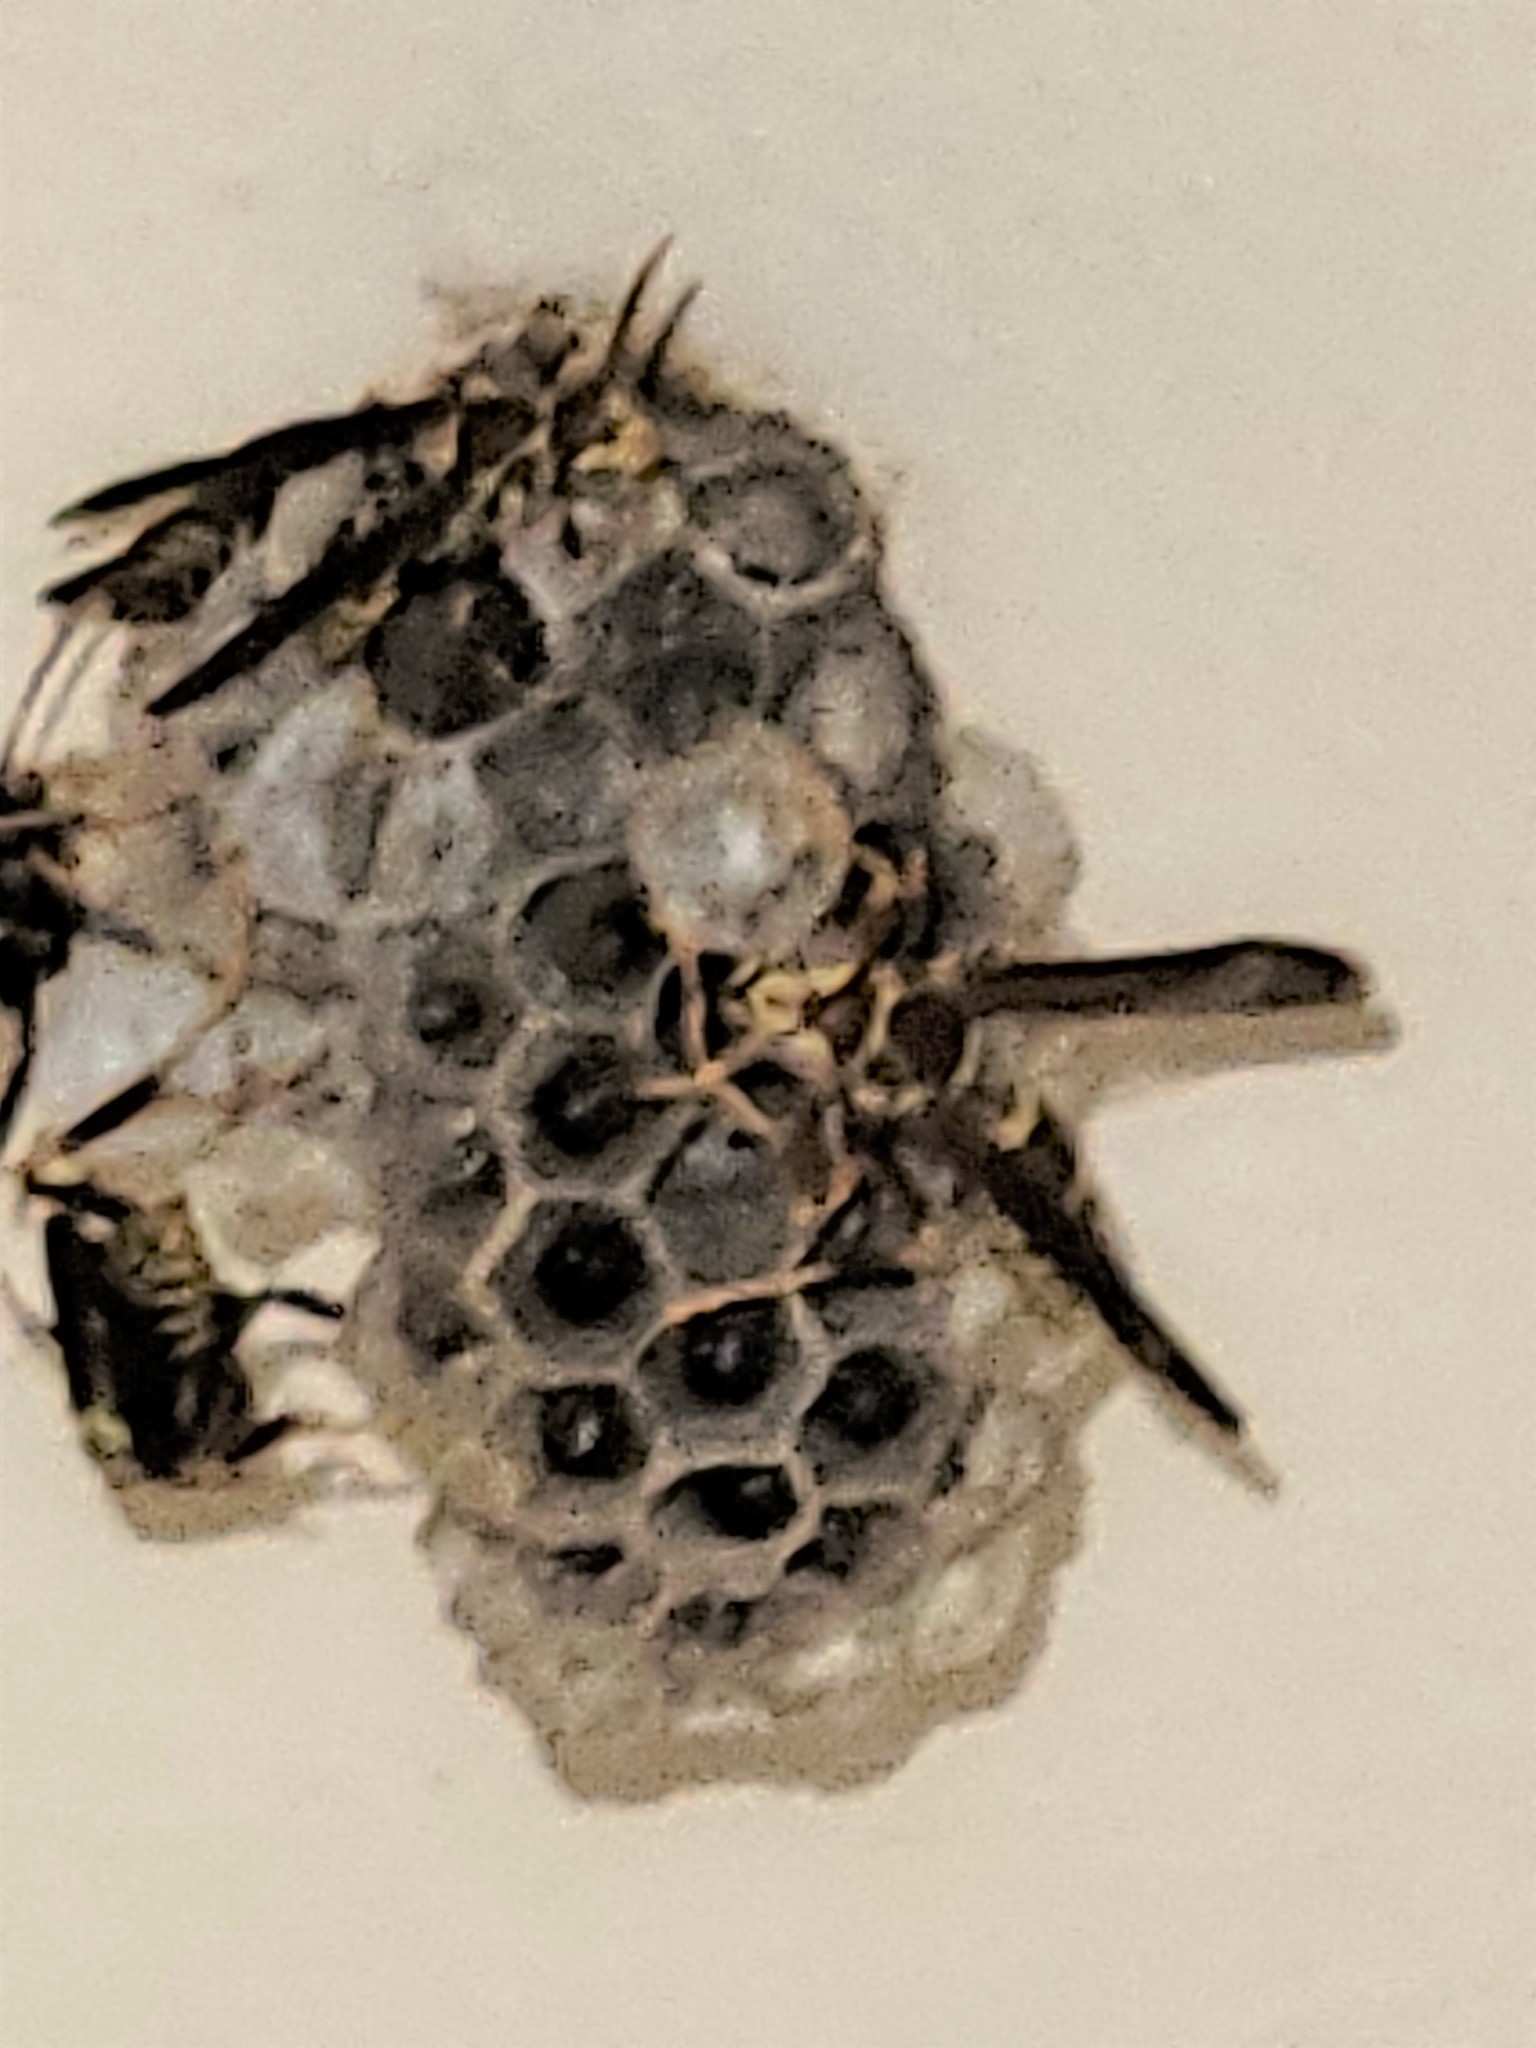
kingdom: Animalia
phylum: Arthropoda
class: Insecta
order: Hymenoptera
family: Eumenidae
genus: Polistes
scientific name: Polistes exclamans
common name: Paper wasp
